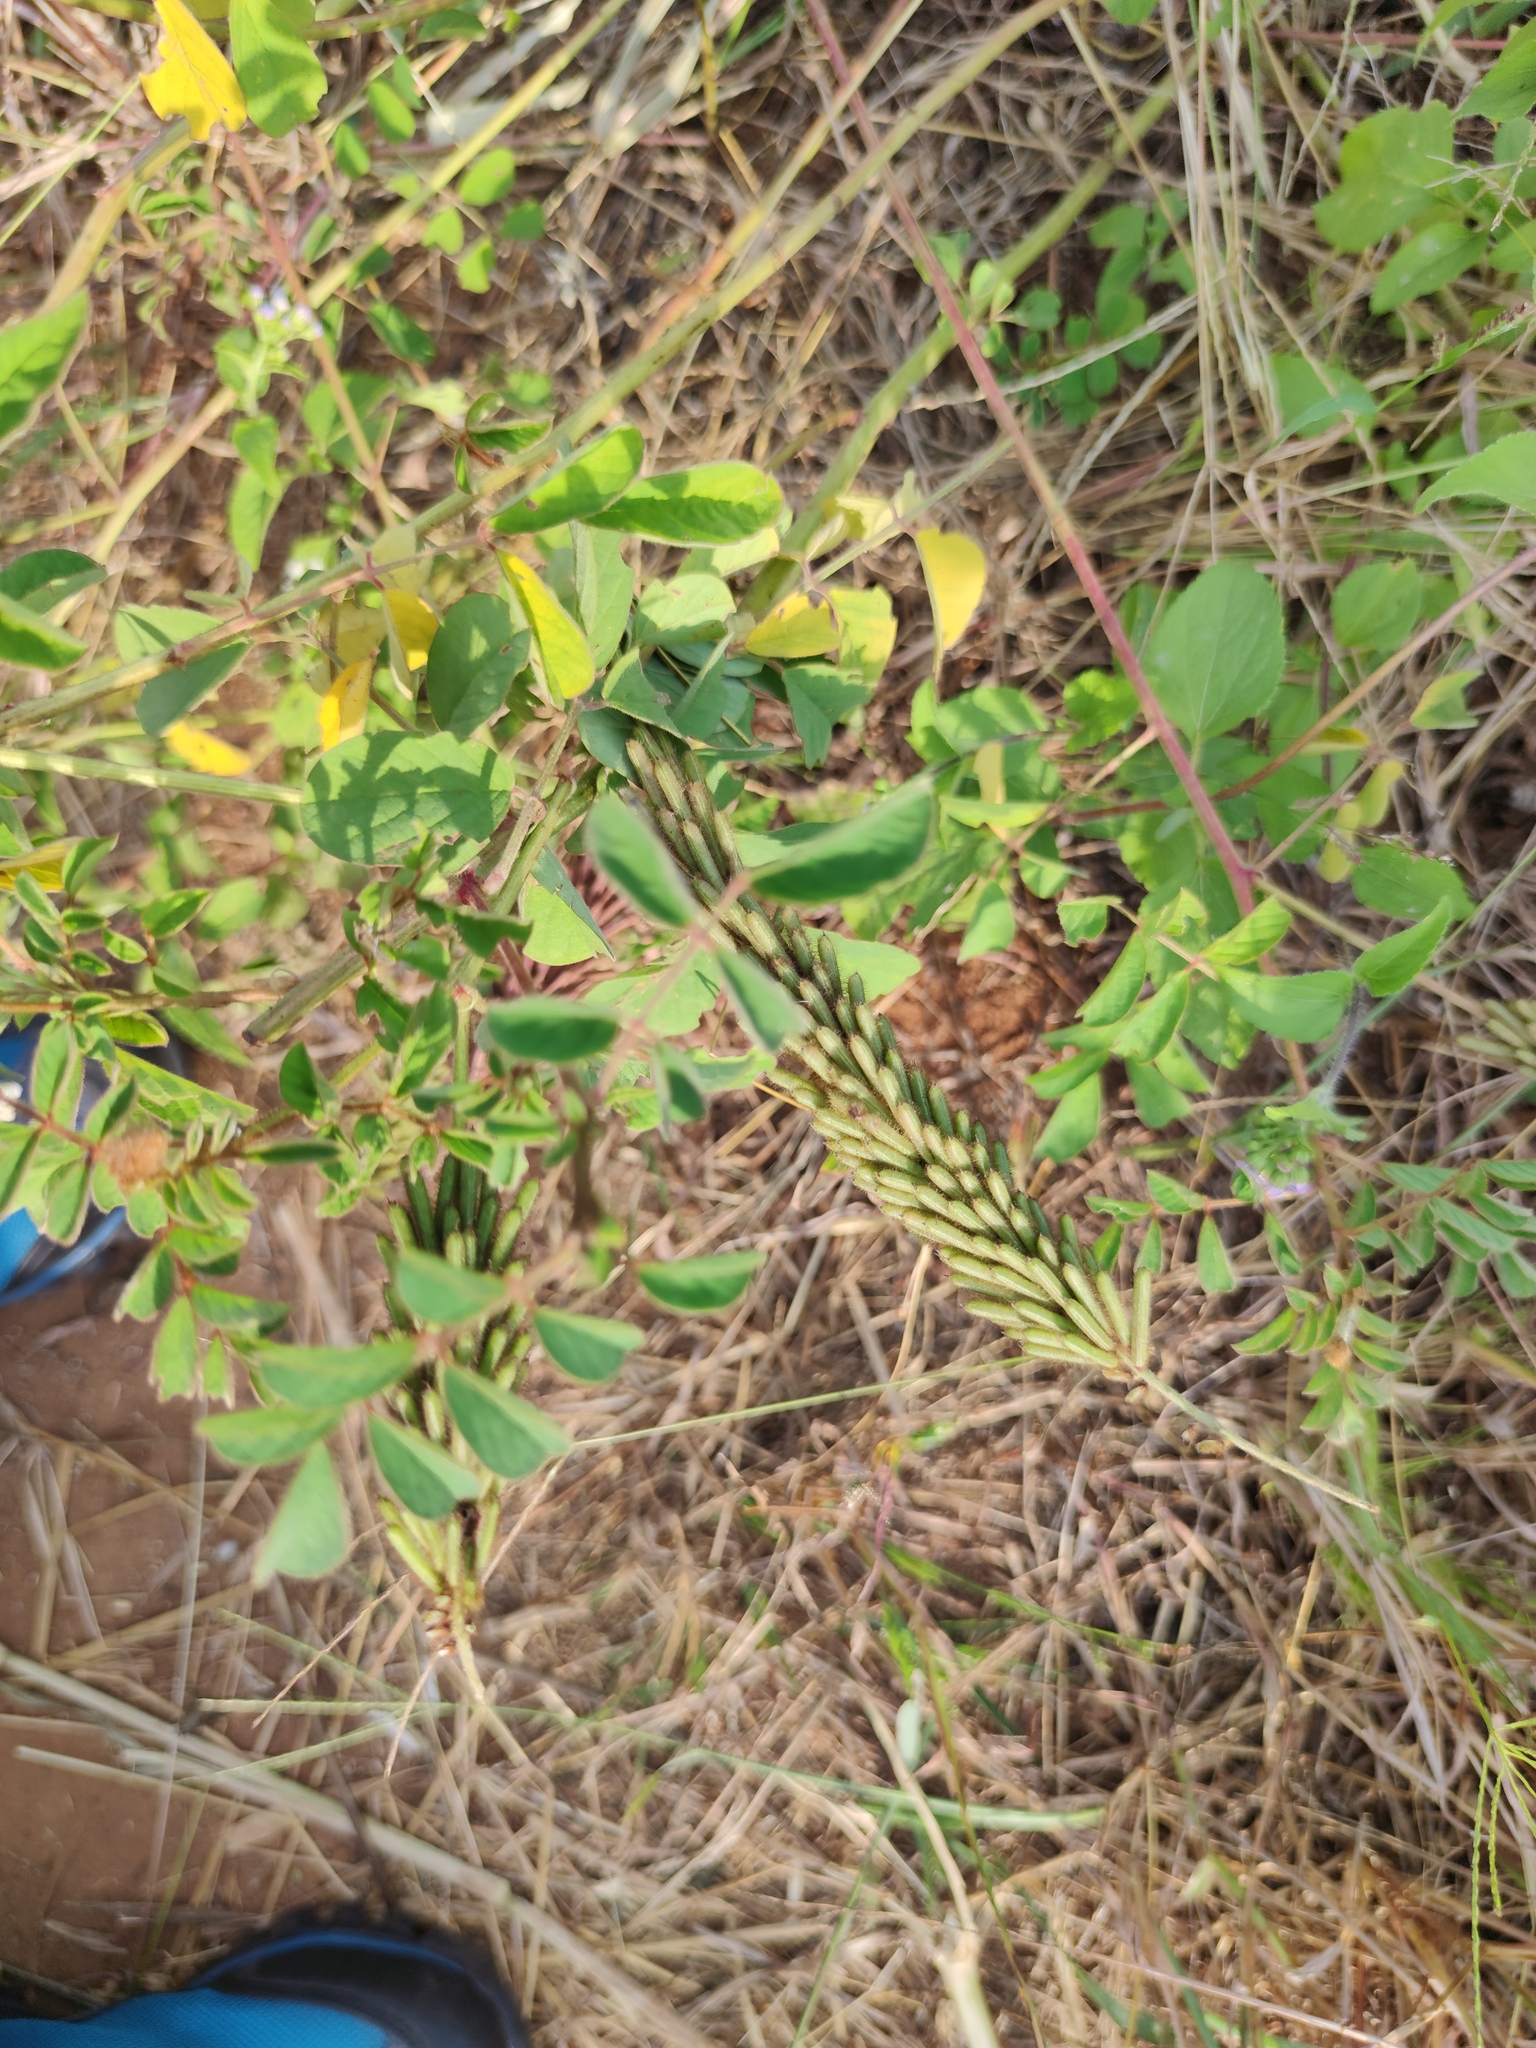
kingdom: Plantae
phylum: Tracheophyta
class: Magnoliopsida
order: Fabales
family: Fabaceae
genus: Indigofera
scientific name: Indigofera hirsuta
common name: Hairy indigo
